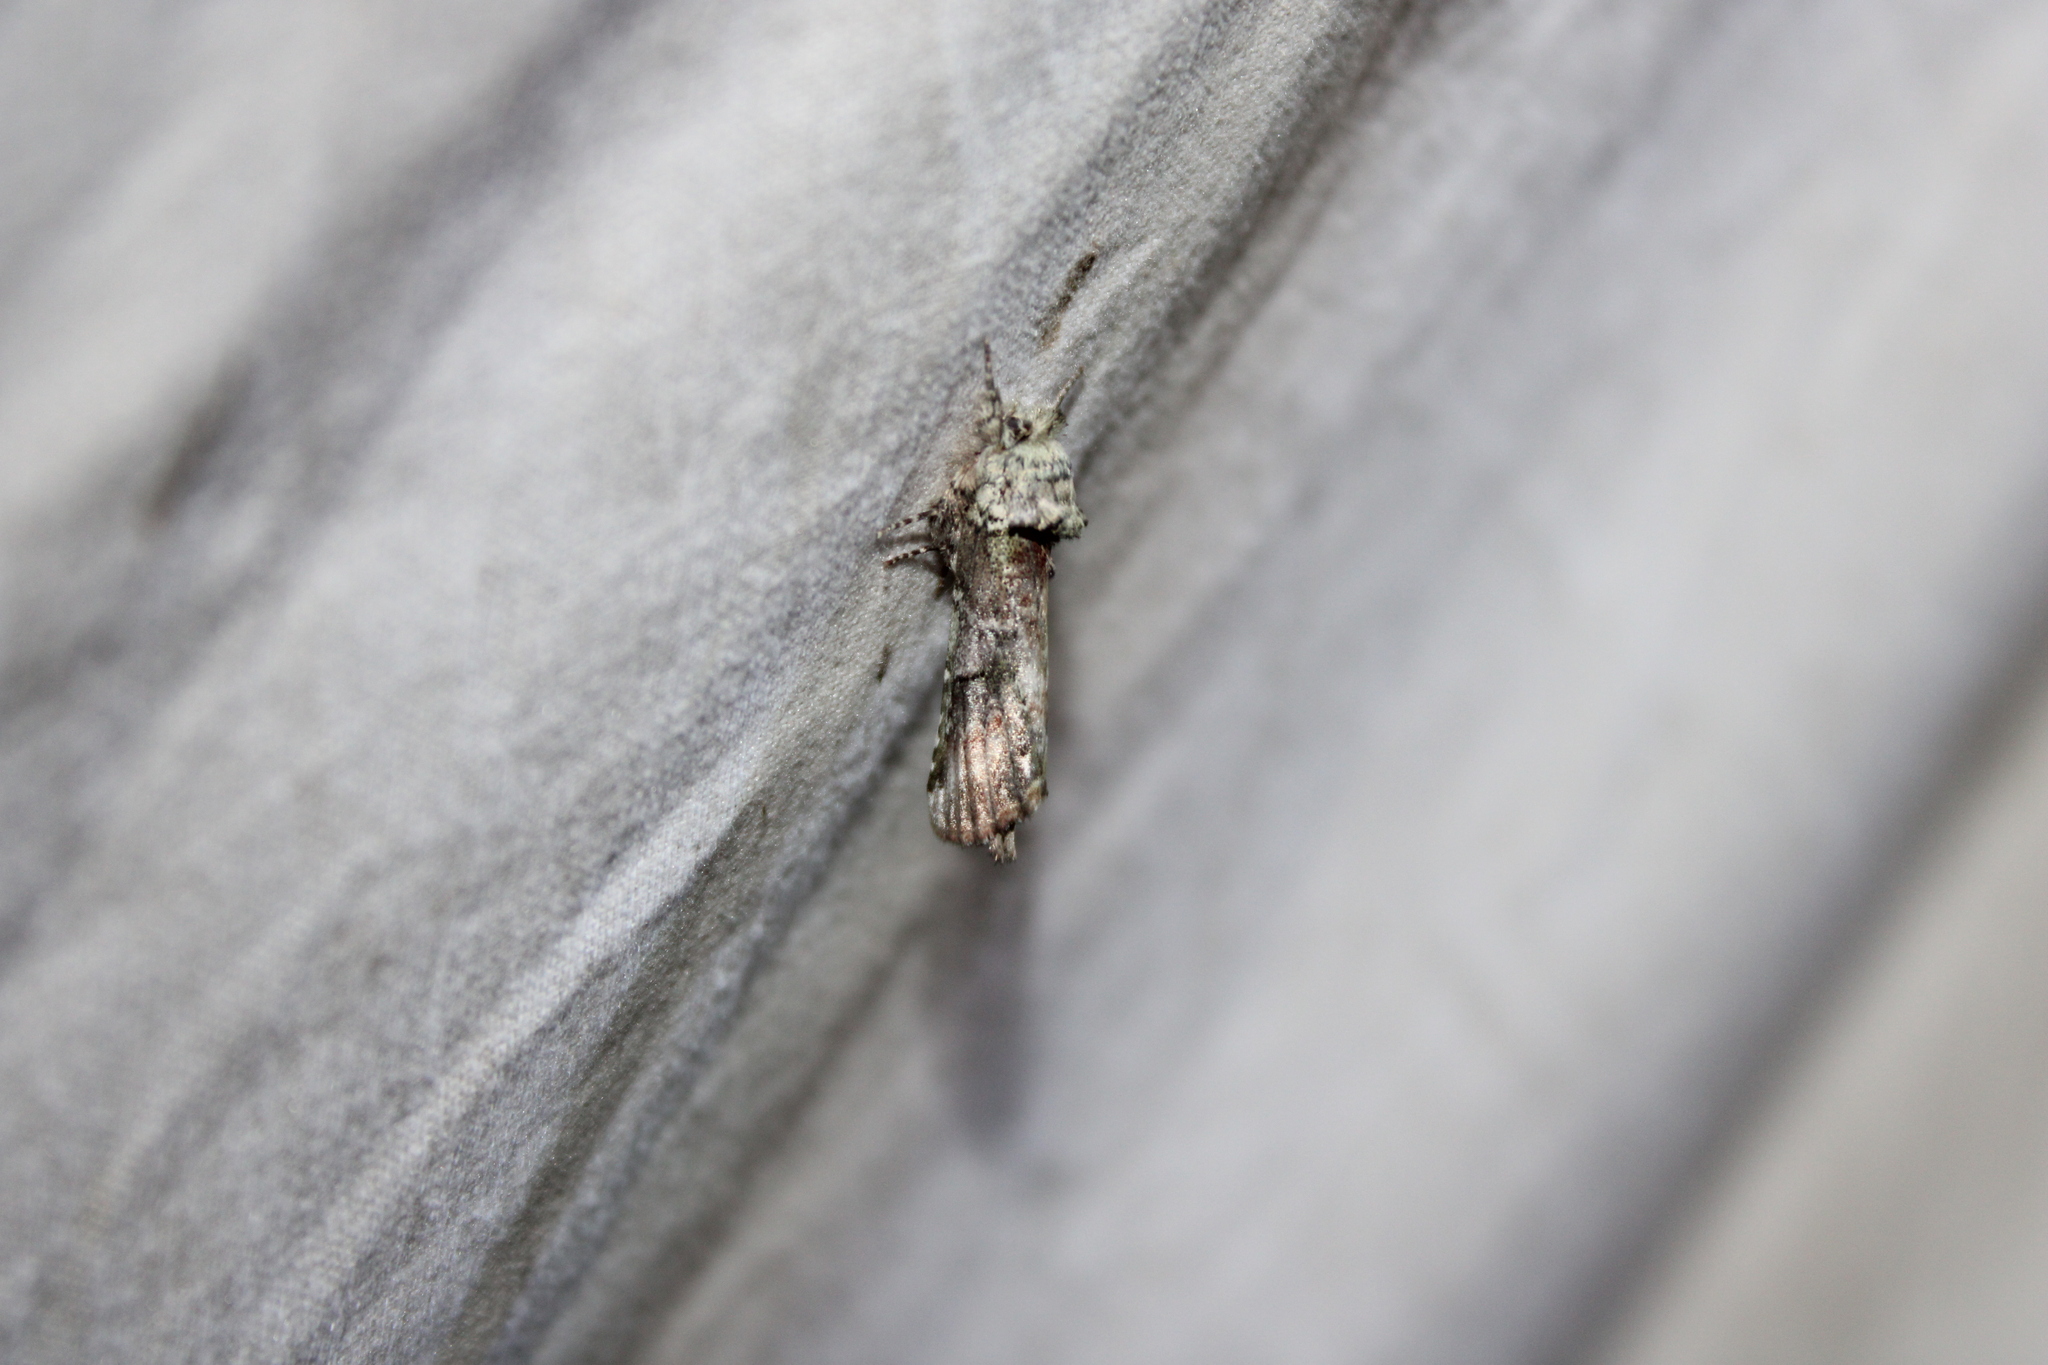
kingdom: Animalia
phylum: Arthropoda
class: Insecta
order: Lepidoptera
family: Notodontidae
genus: Schizura
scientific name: Schizura
